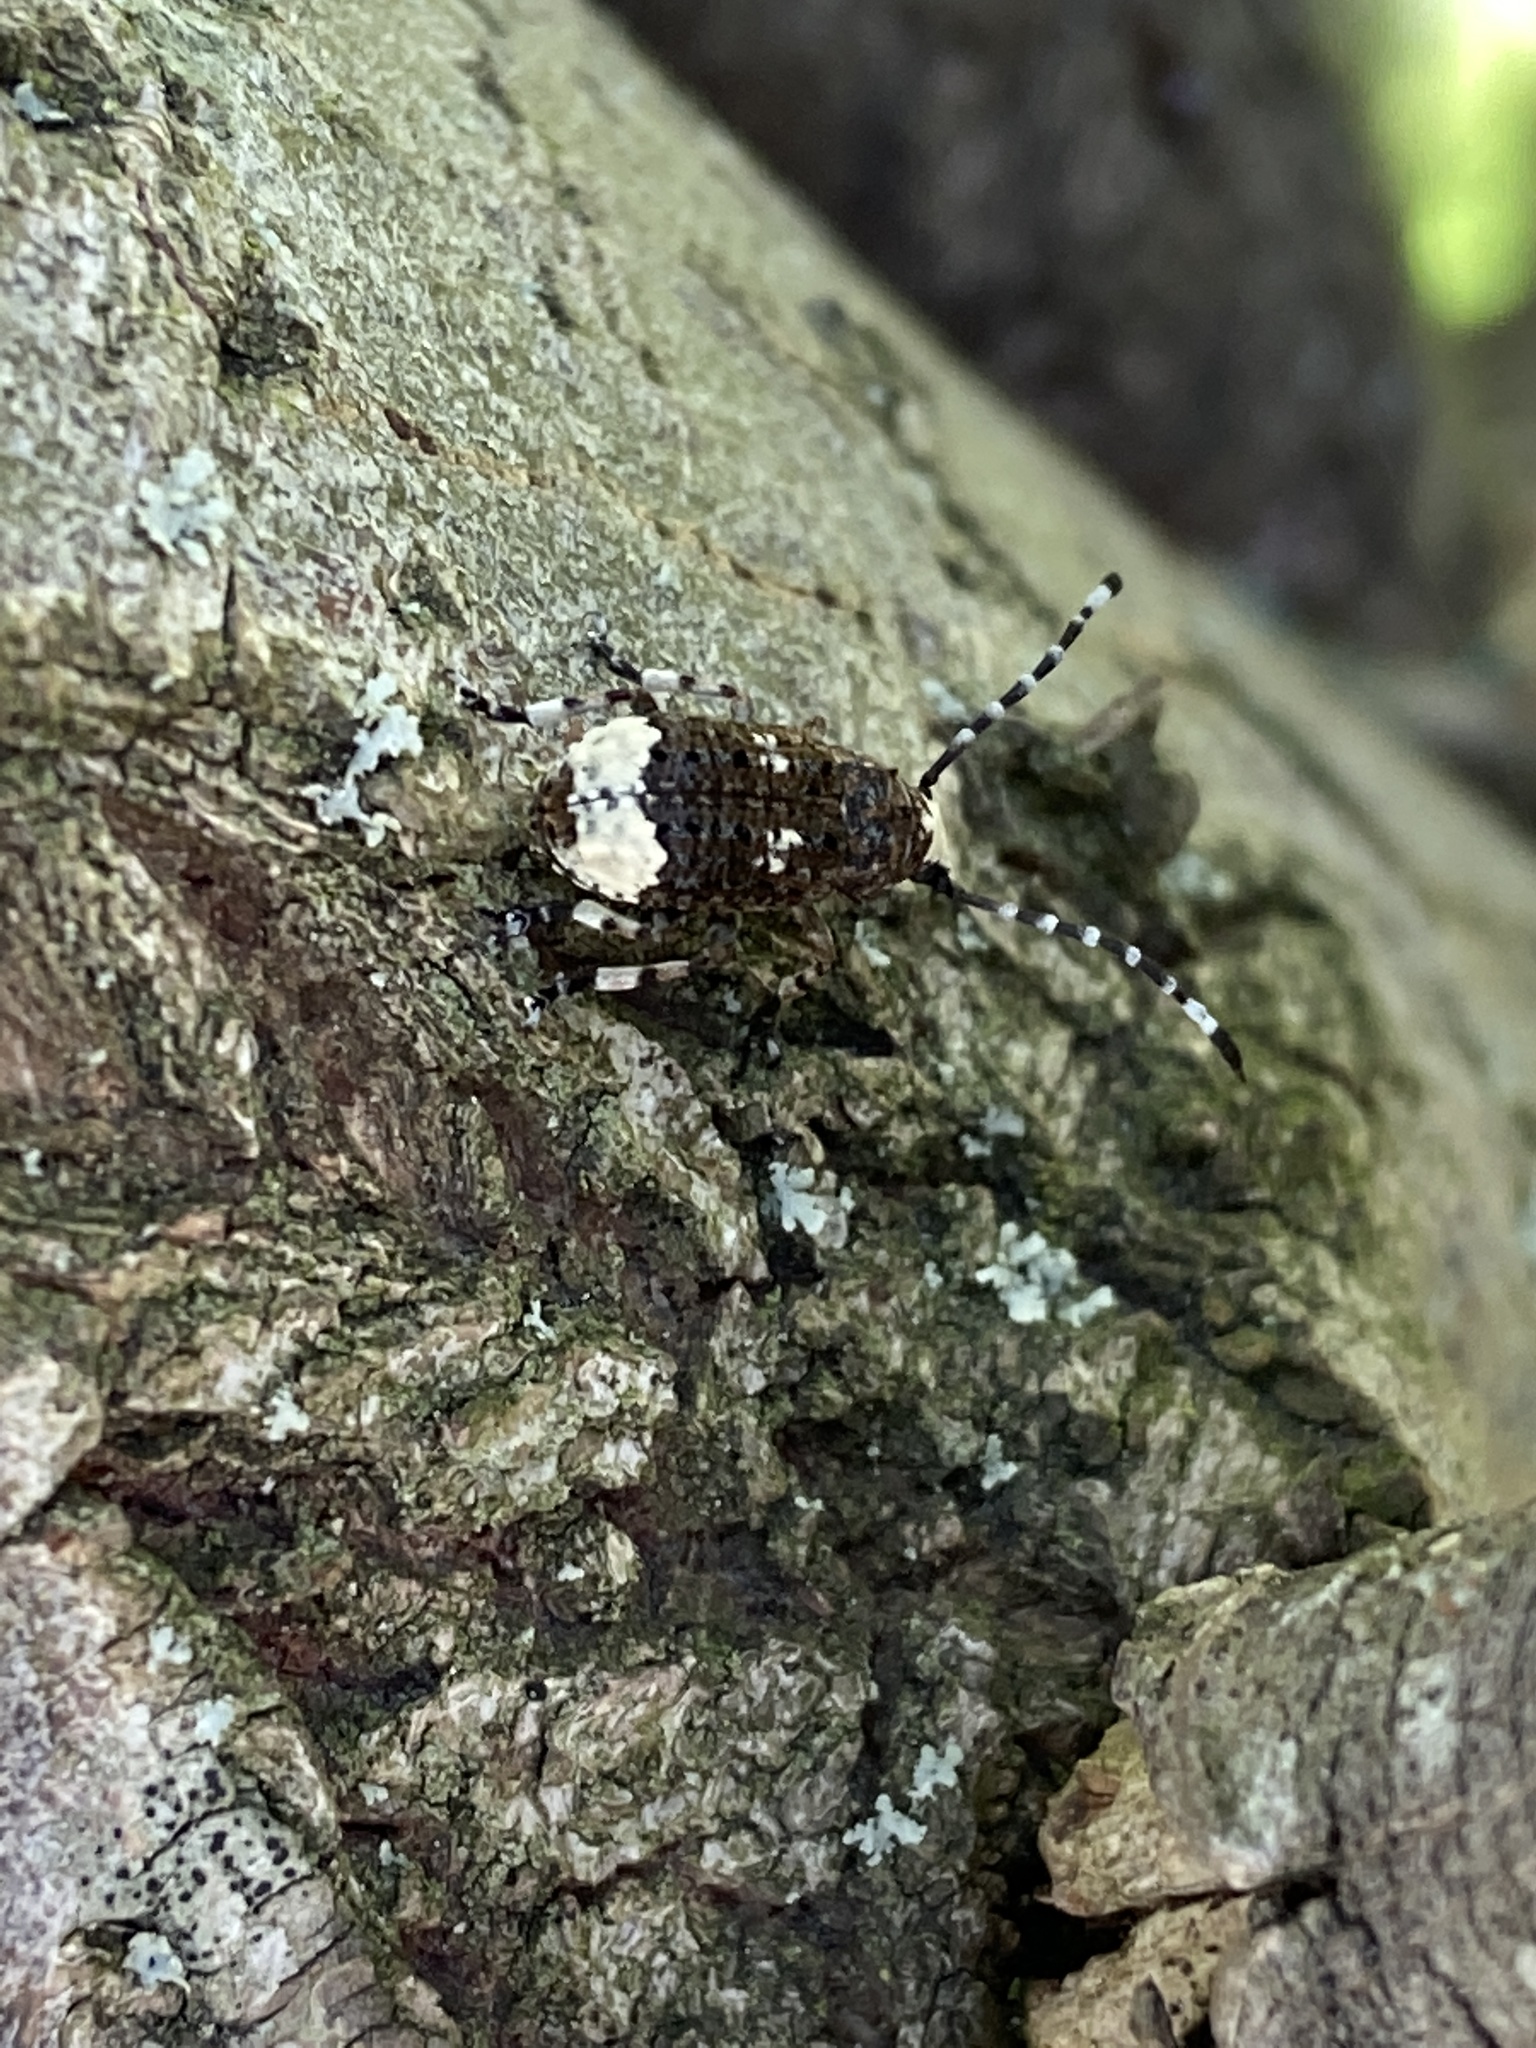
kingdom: Animalia
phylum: Arthropoda
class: Insecta
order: Coleoptera
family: Anthribidae
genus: Platystomos
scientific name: Platystomos albinus
